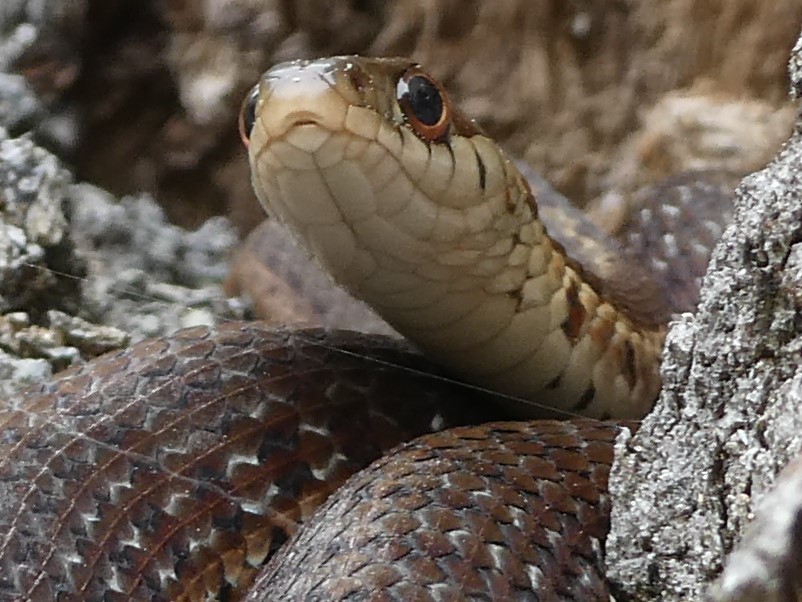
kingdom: Animalia
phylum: Chordata
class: Squamata
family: Colubridae
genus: Thamnophis
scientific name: Thamnophis sirtalis
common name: Common garter snake
